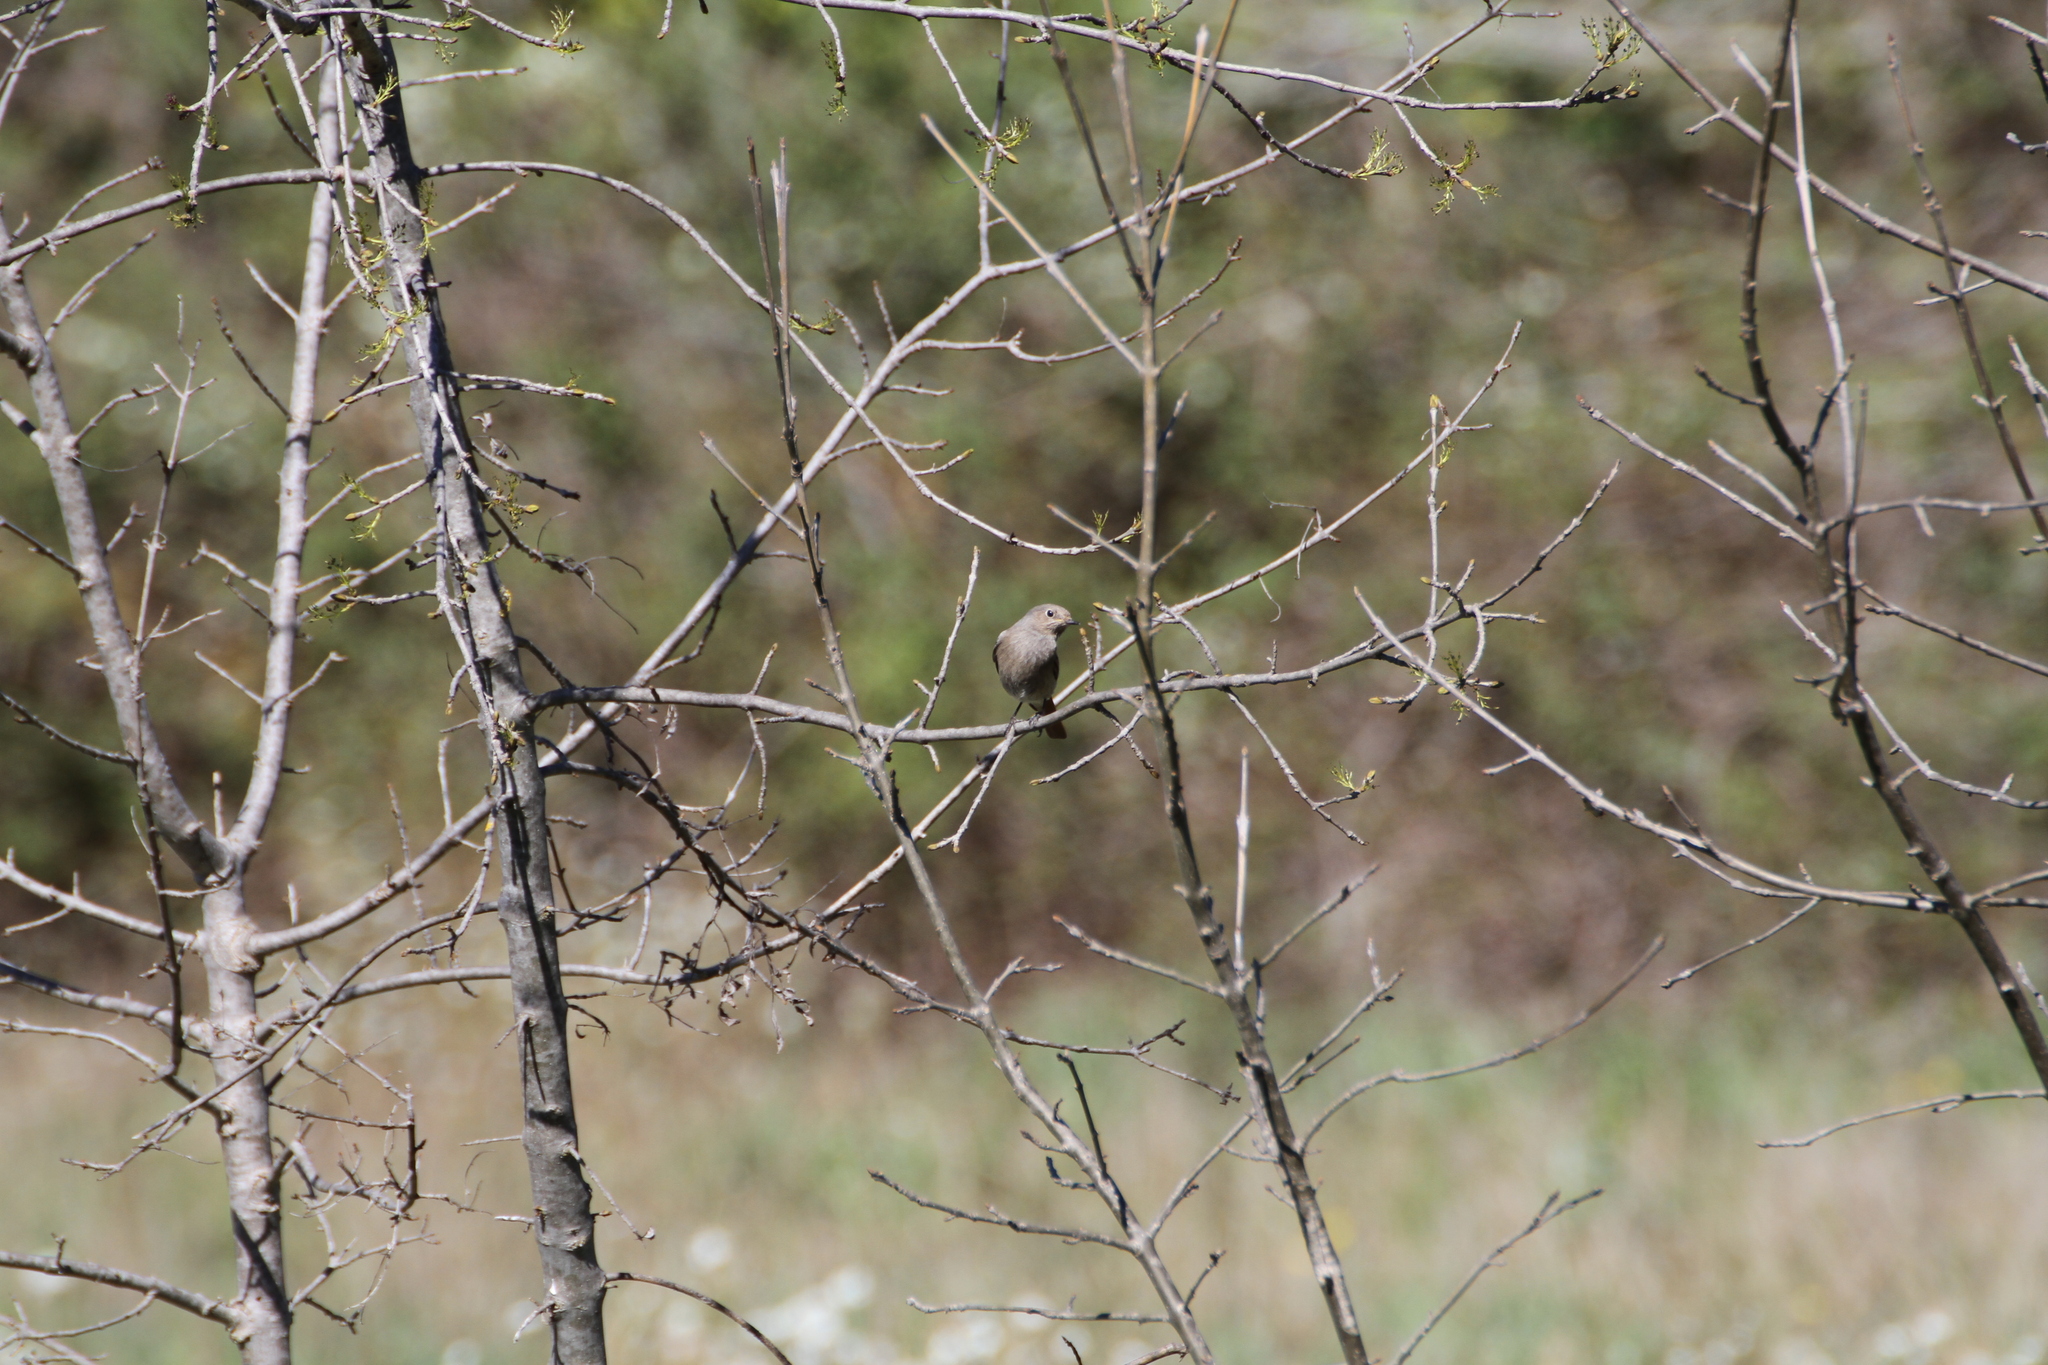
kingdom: Animalia
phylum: Chordata
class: Aves
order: Passeriformes
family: Muscicapidae
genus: Phoenicurus
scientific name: Phoenicurus ochruros
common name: Black redstart
